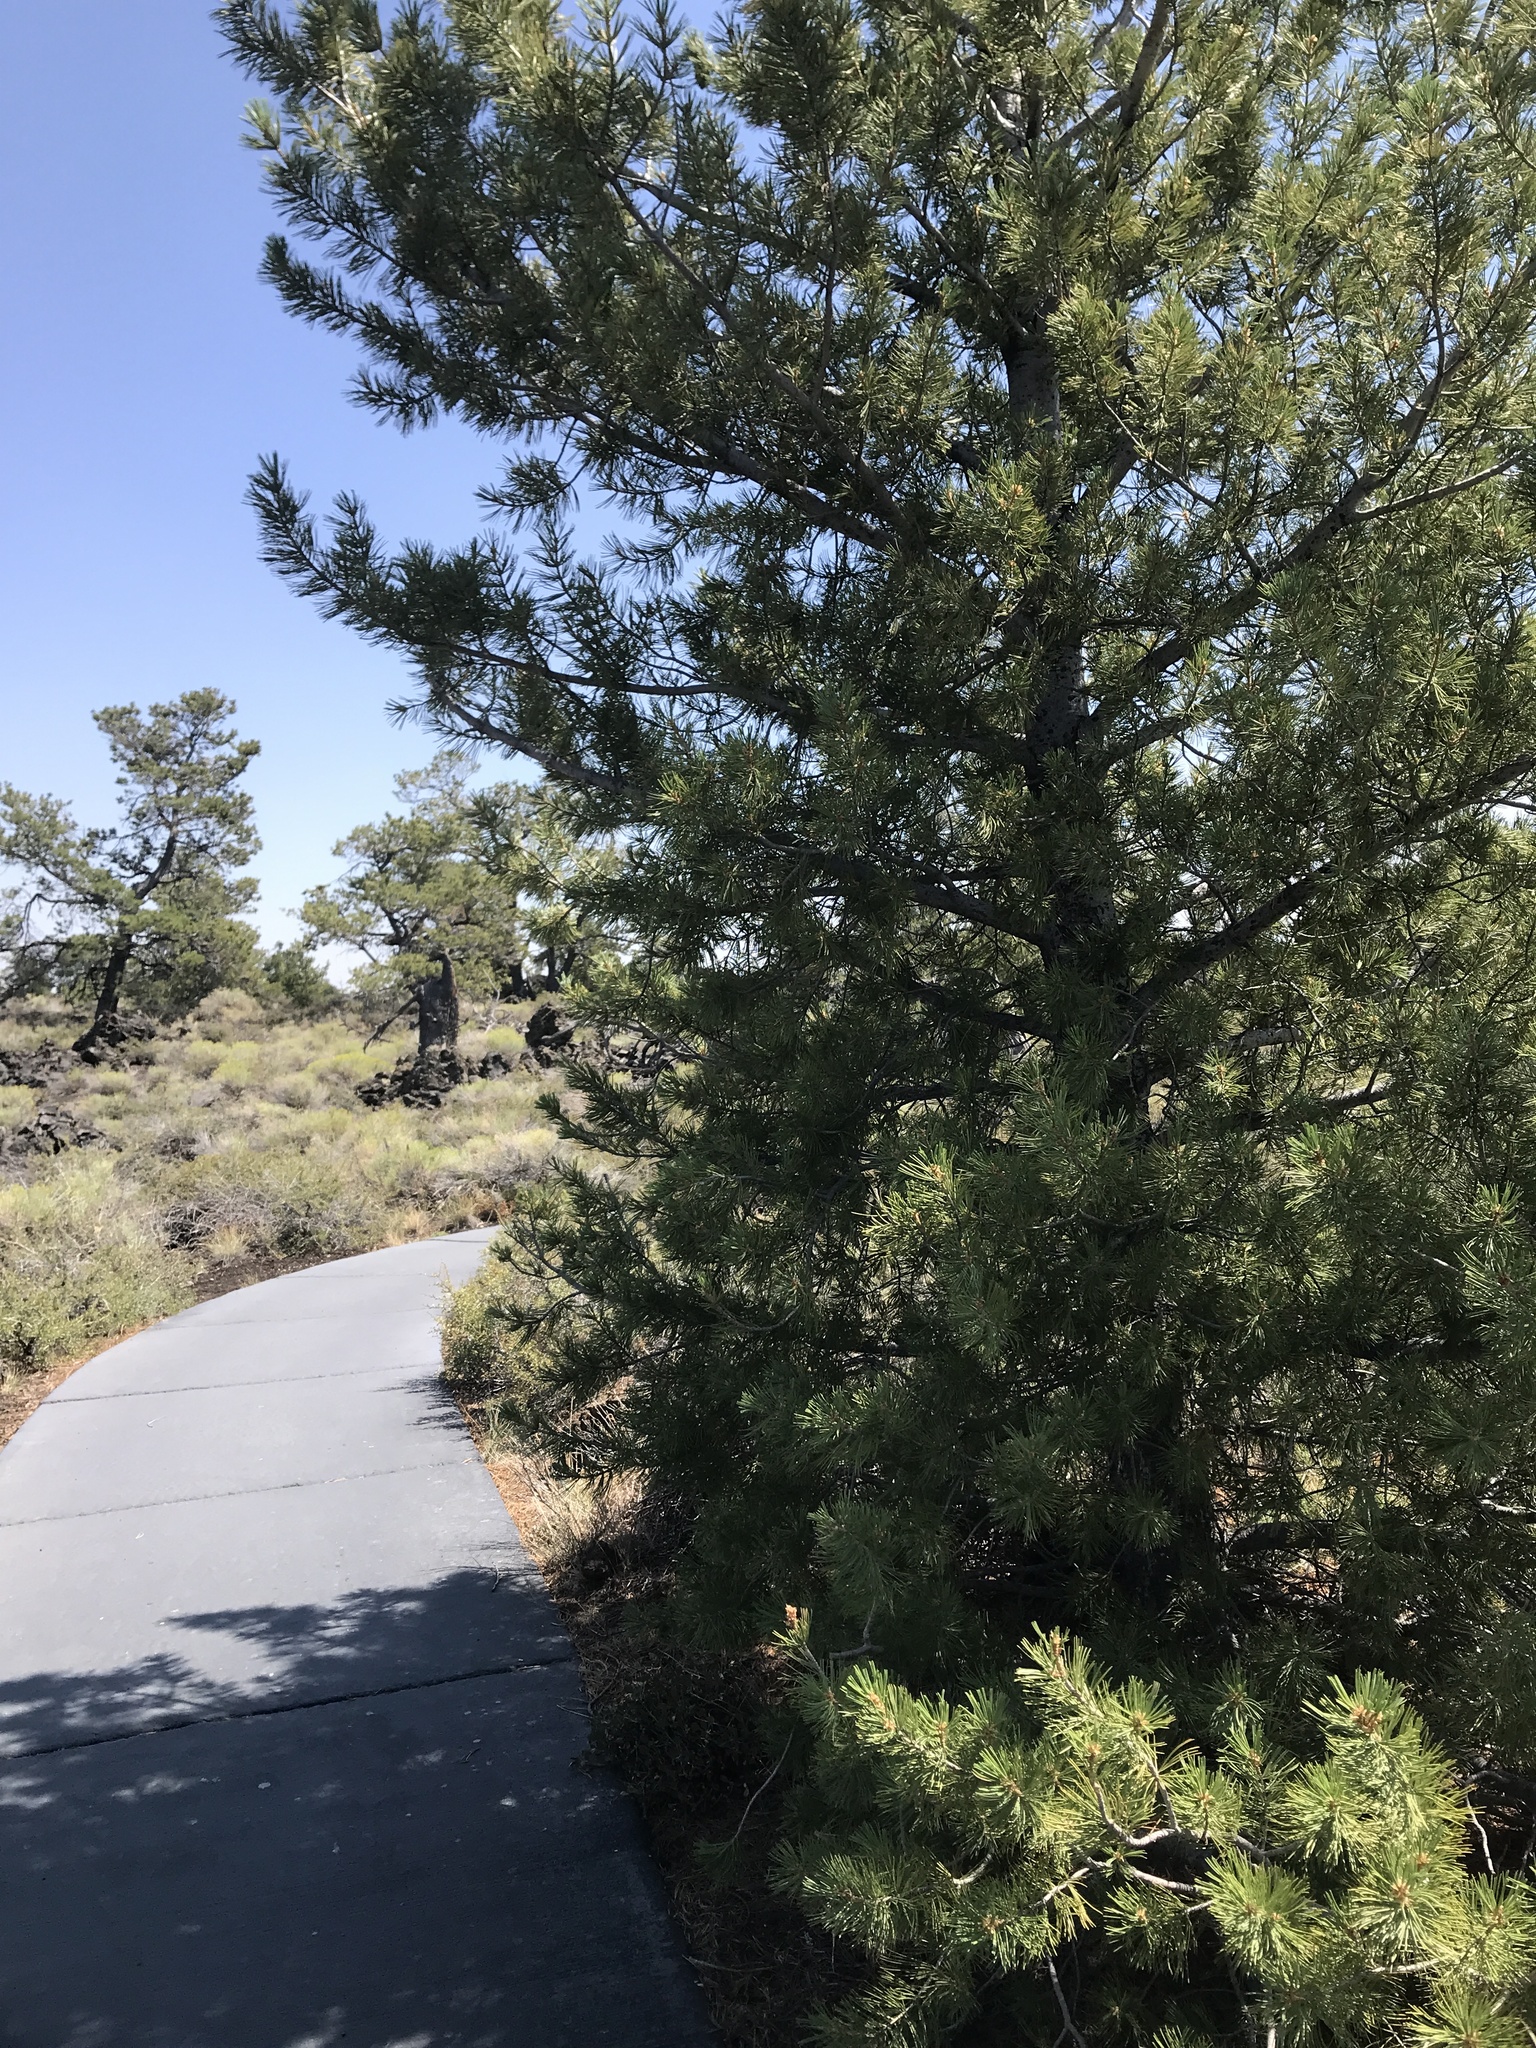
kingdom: Plantae
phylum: Tracheophyta
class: Pinopsida
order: Pinales
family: Pinaceae
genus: Pinus
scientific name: Pinus flexilis
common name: Limber pine
